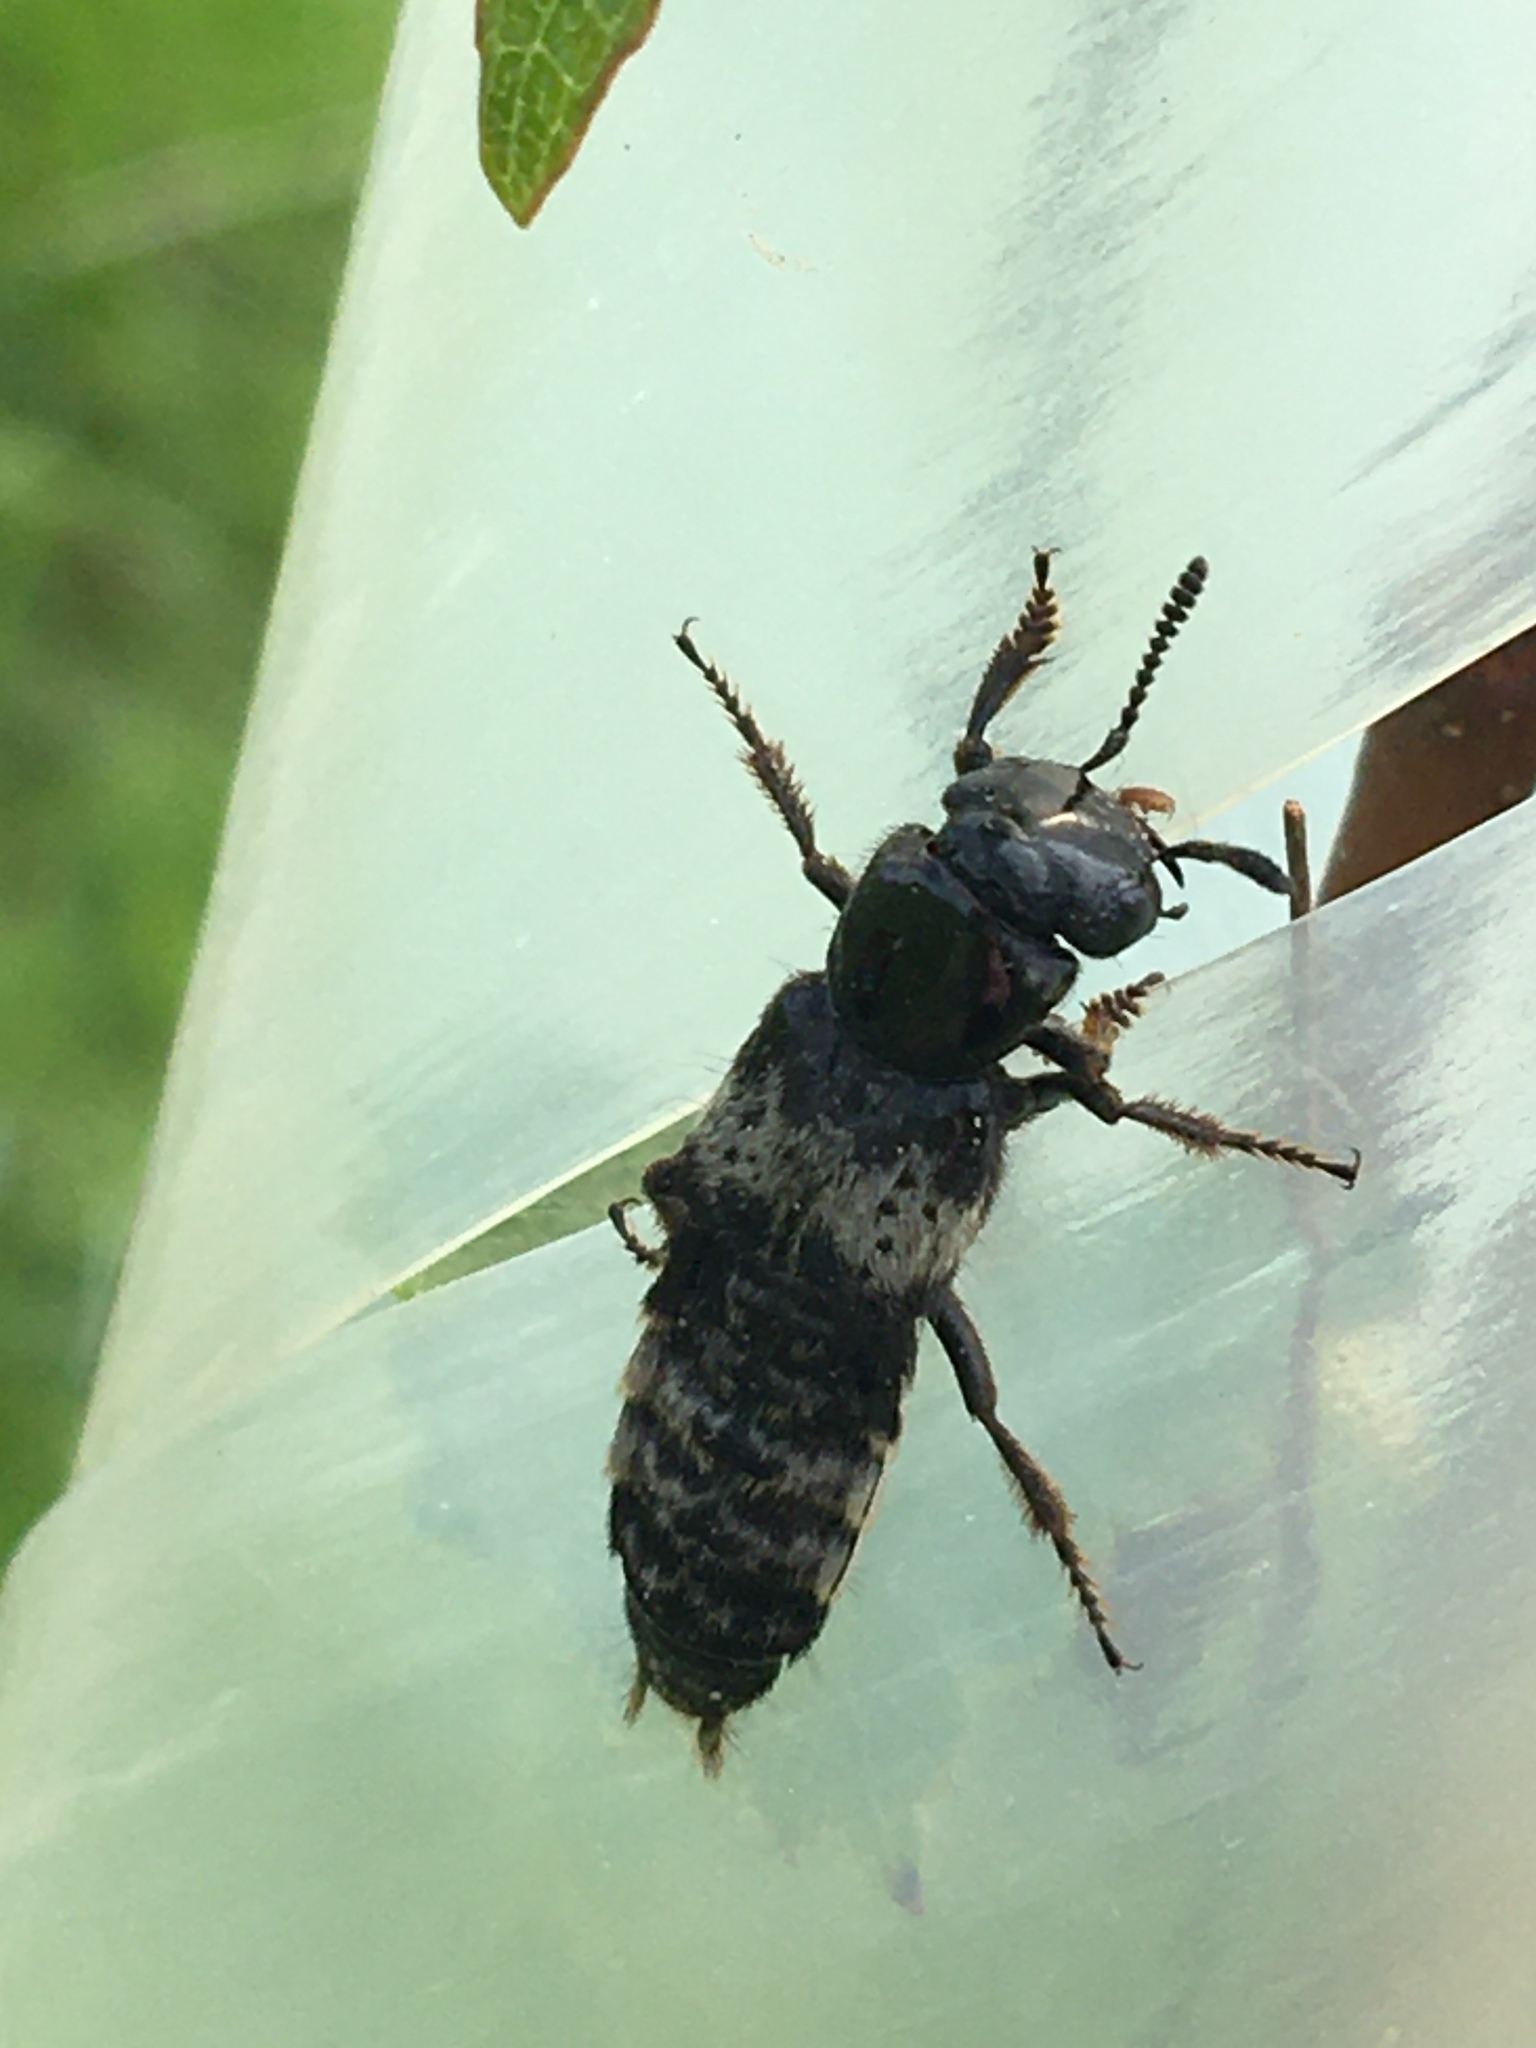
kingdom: Animalia
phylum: Arthropoda
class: Insecta
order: Coleoptera
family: Staphylinidae
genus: Creophilus
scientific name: Creophilus maxillosus
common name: Hairy rove beetle
